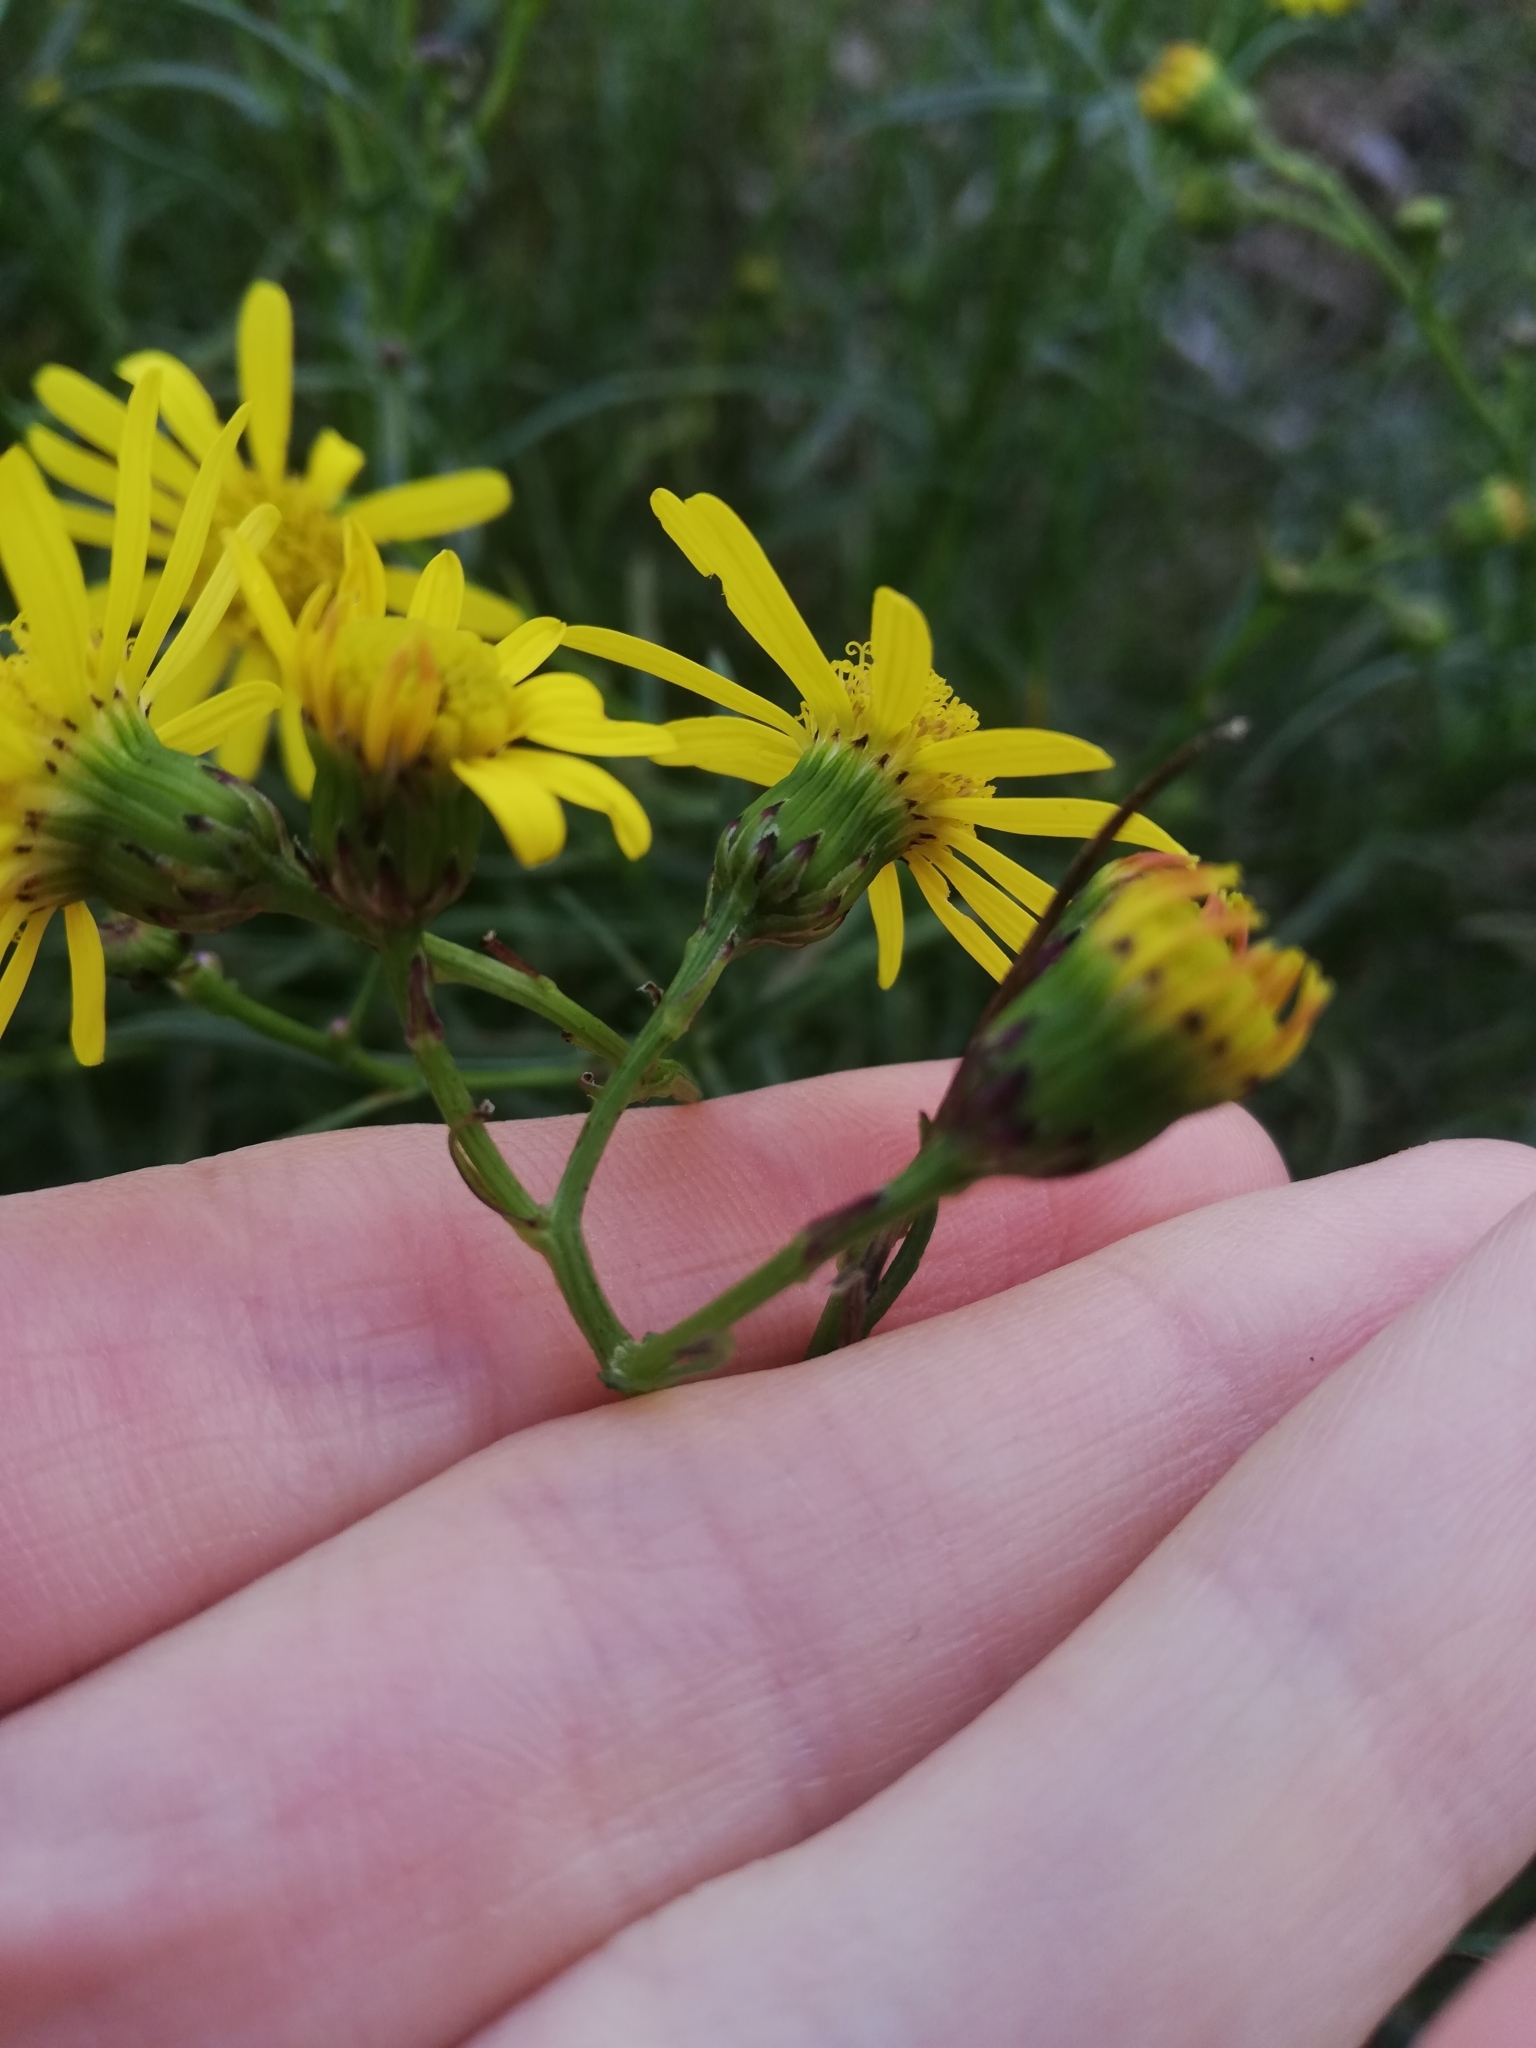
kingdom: Plantae
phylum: Tracheophyta
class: Magnoliopsida
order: Asterales
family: Asteraceae
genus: Senecio
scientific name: Senecio inaequidens
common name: Narrow-leaved ragwort
